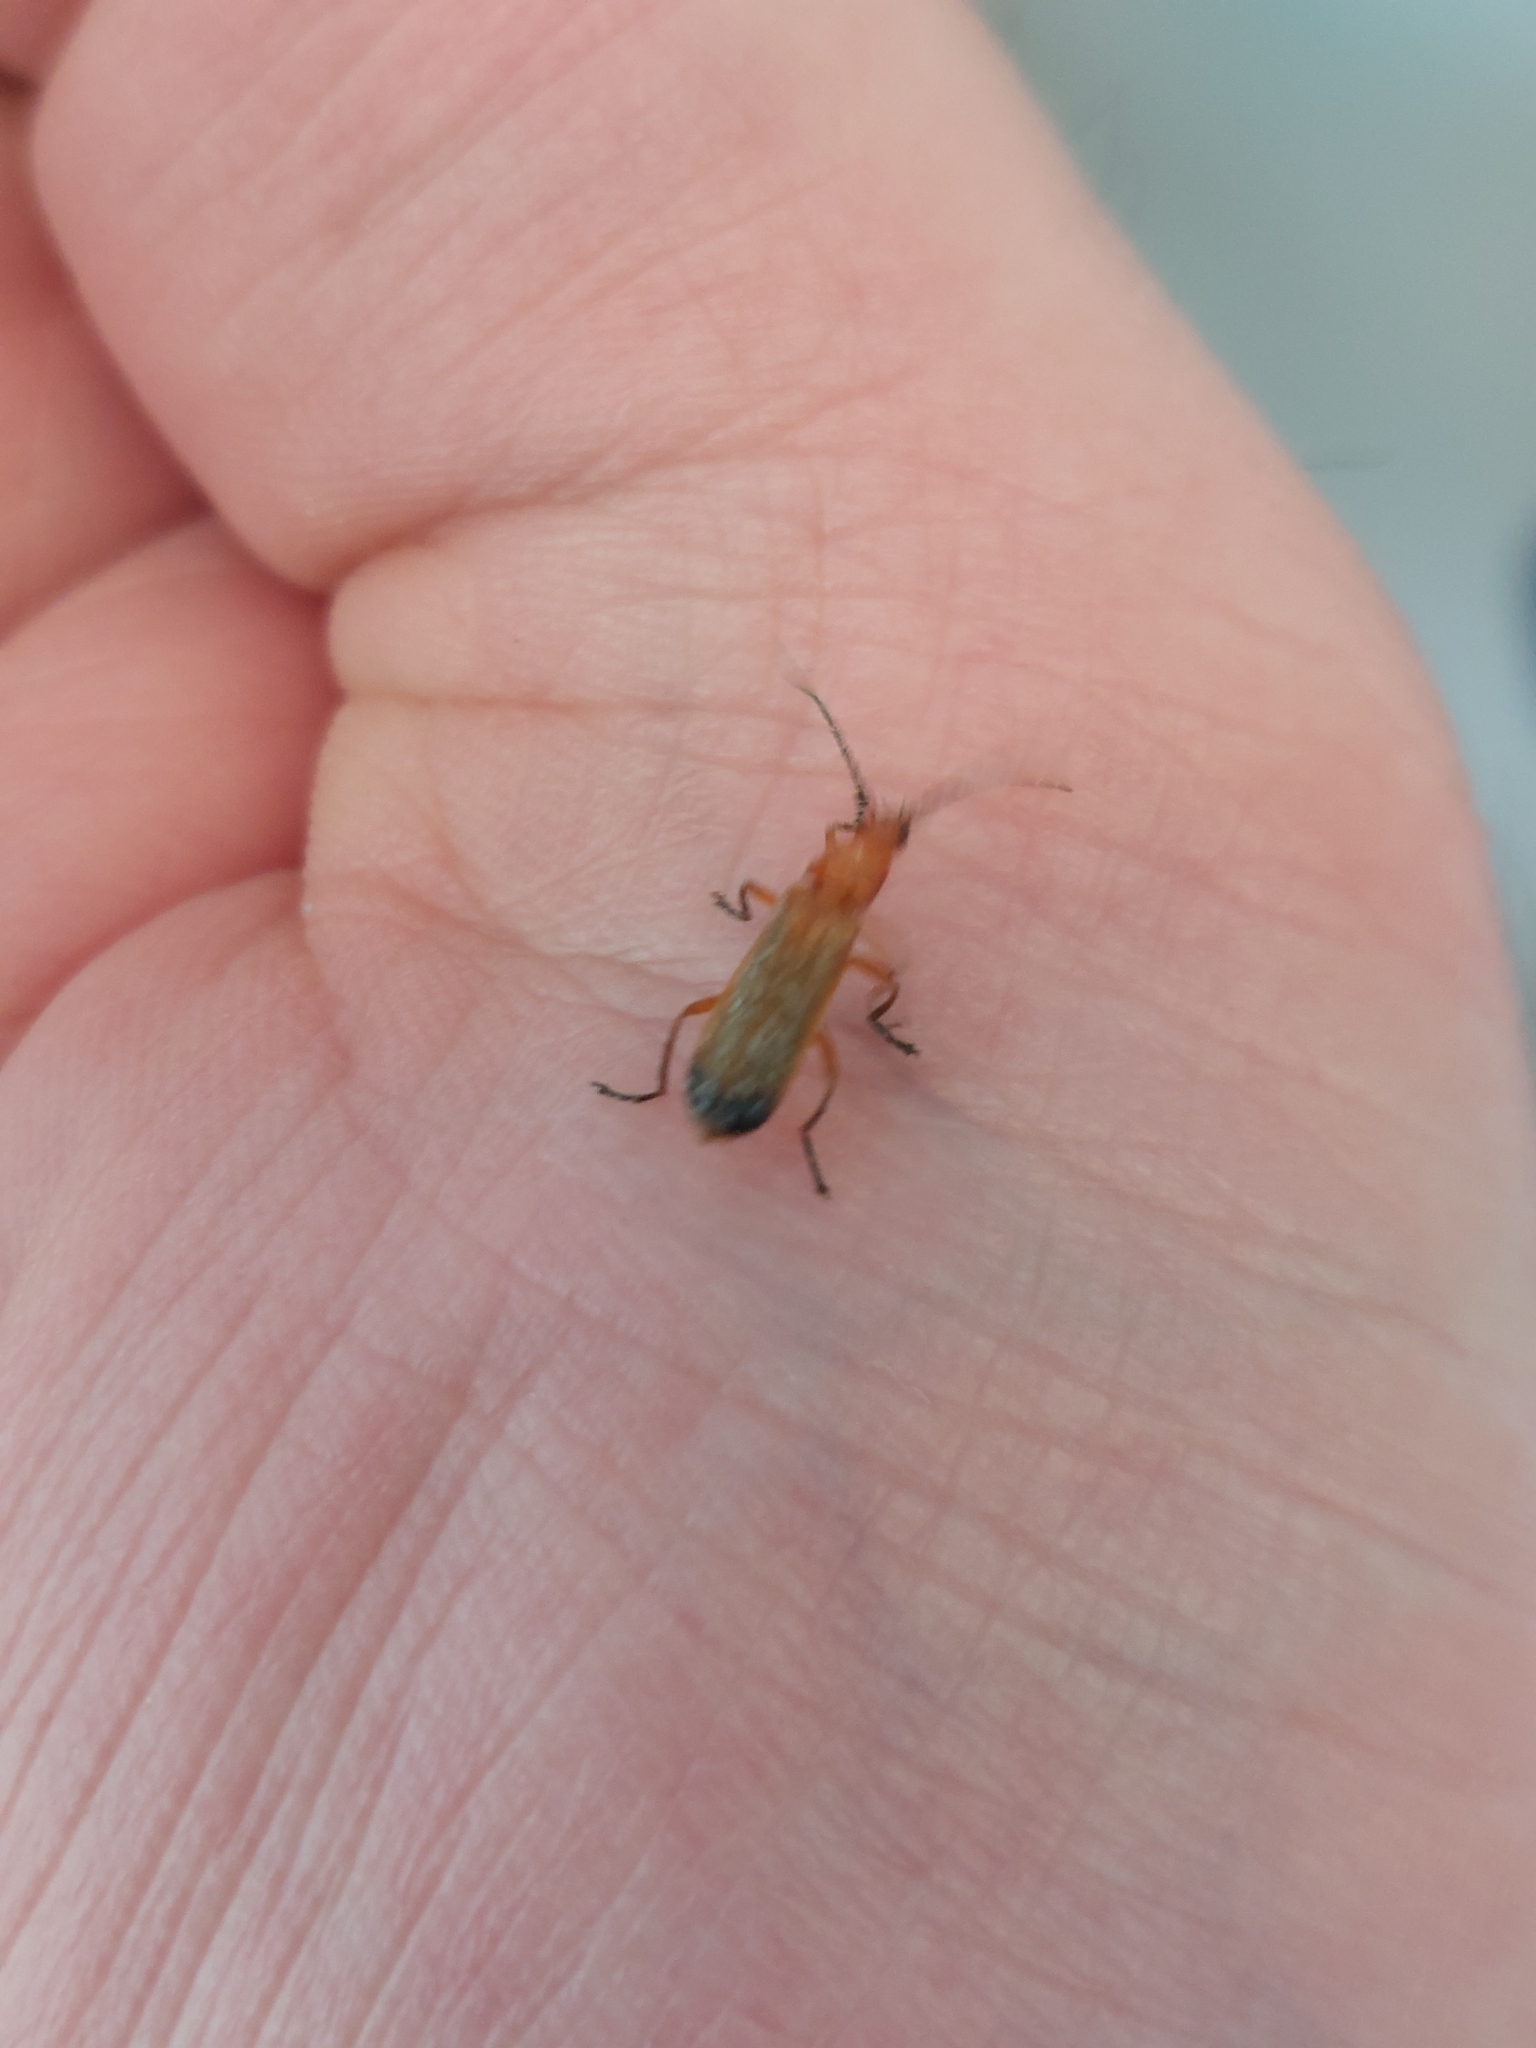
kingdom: Animalia
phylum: Arthropoda
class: Insecta
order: Coleoptera
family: Cantharidae
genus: Rhagonycha
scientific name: Rhagonycha fulva
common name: Common red soldier beetle
